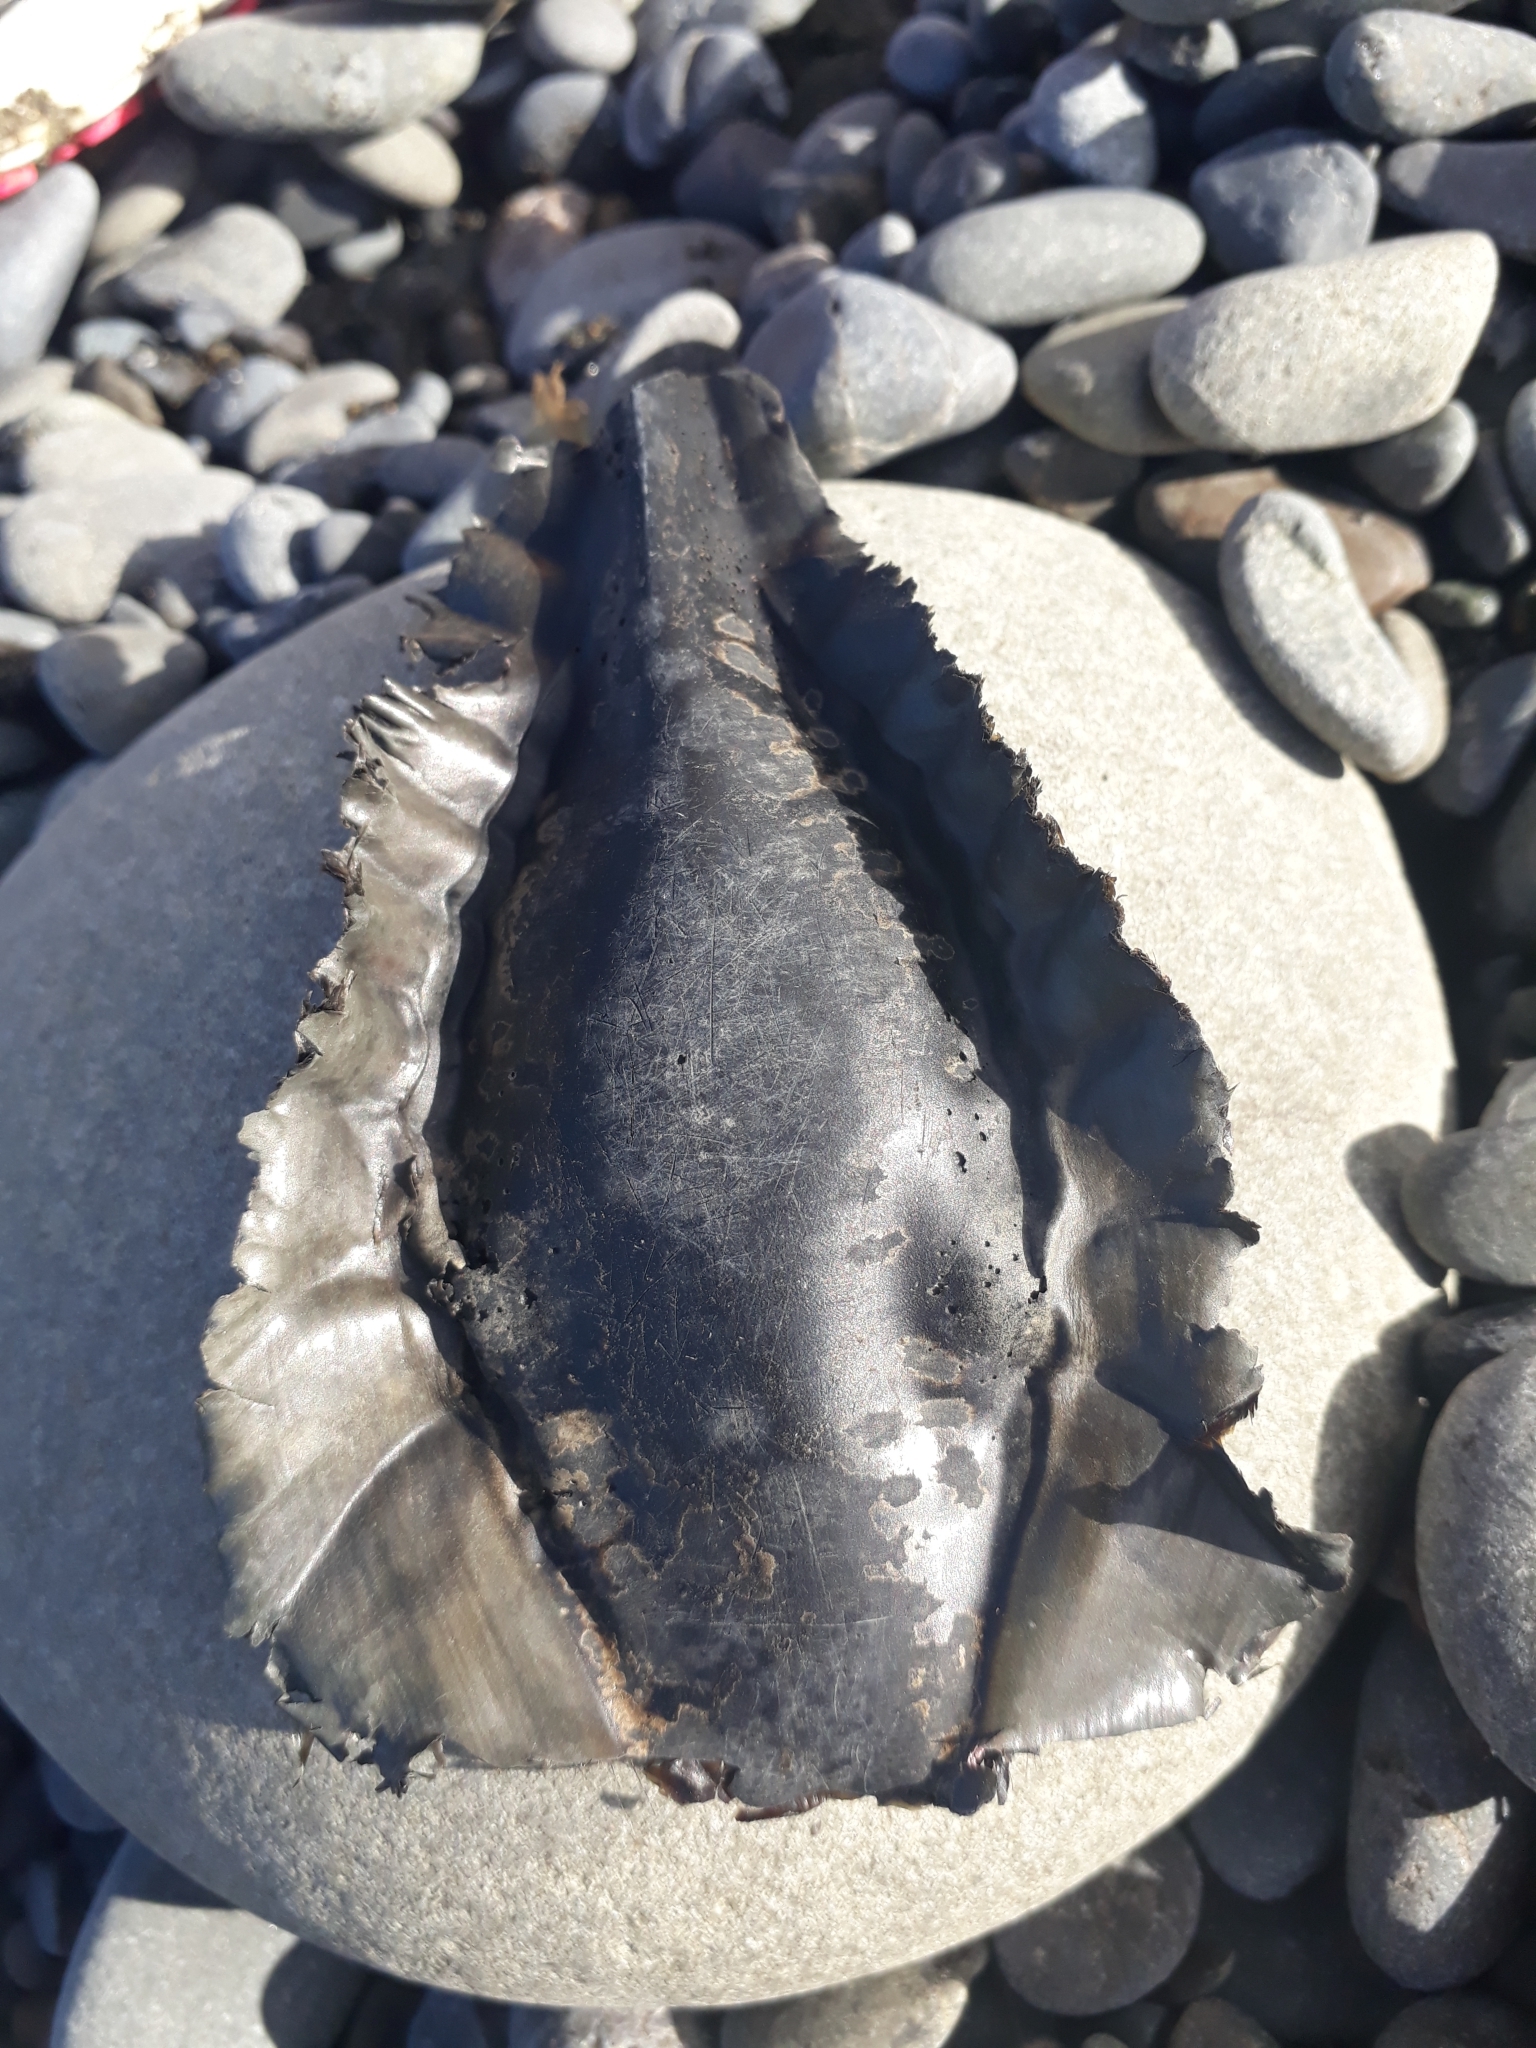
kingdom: Animalia
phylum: Chordata
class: Holocephali
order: Chimaeriformes
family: Callorhinchidae
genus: Callorhinchus
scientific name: Callorhinchus milii
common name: Elephant fish
